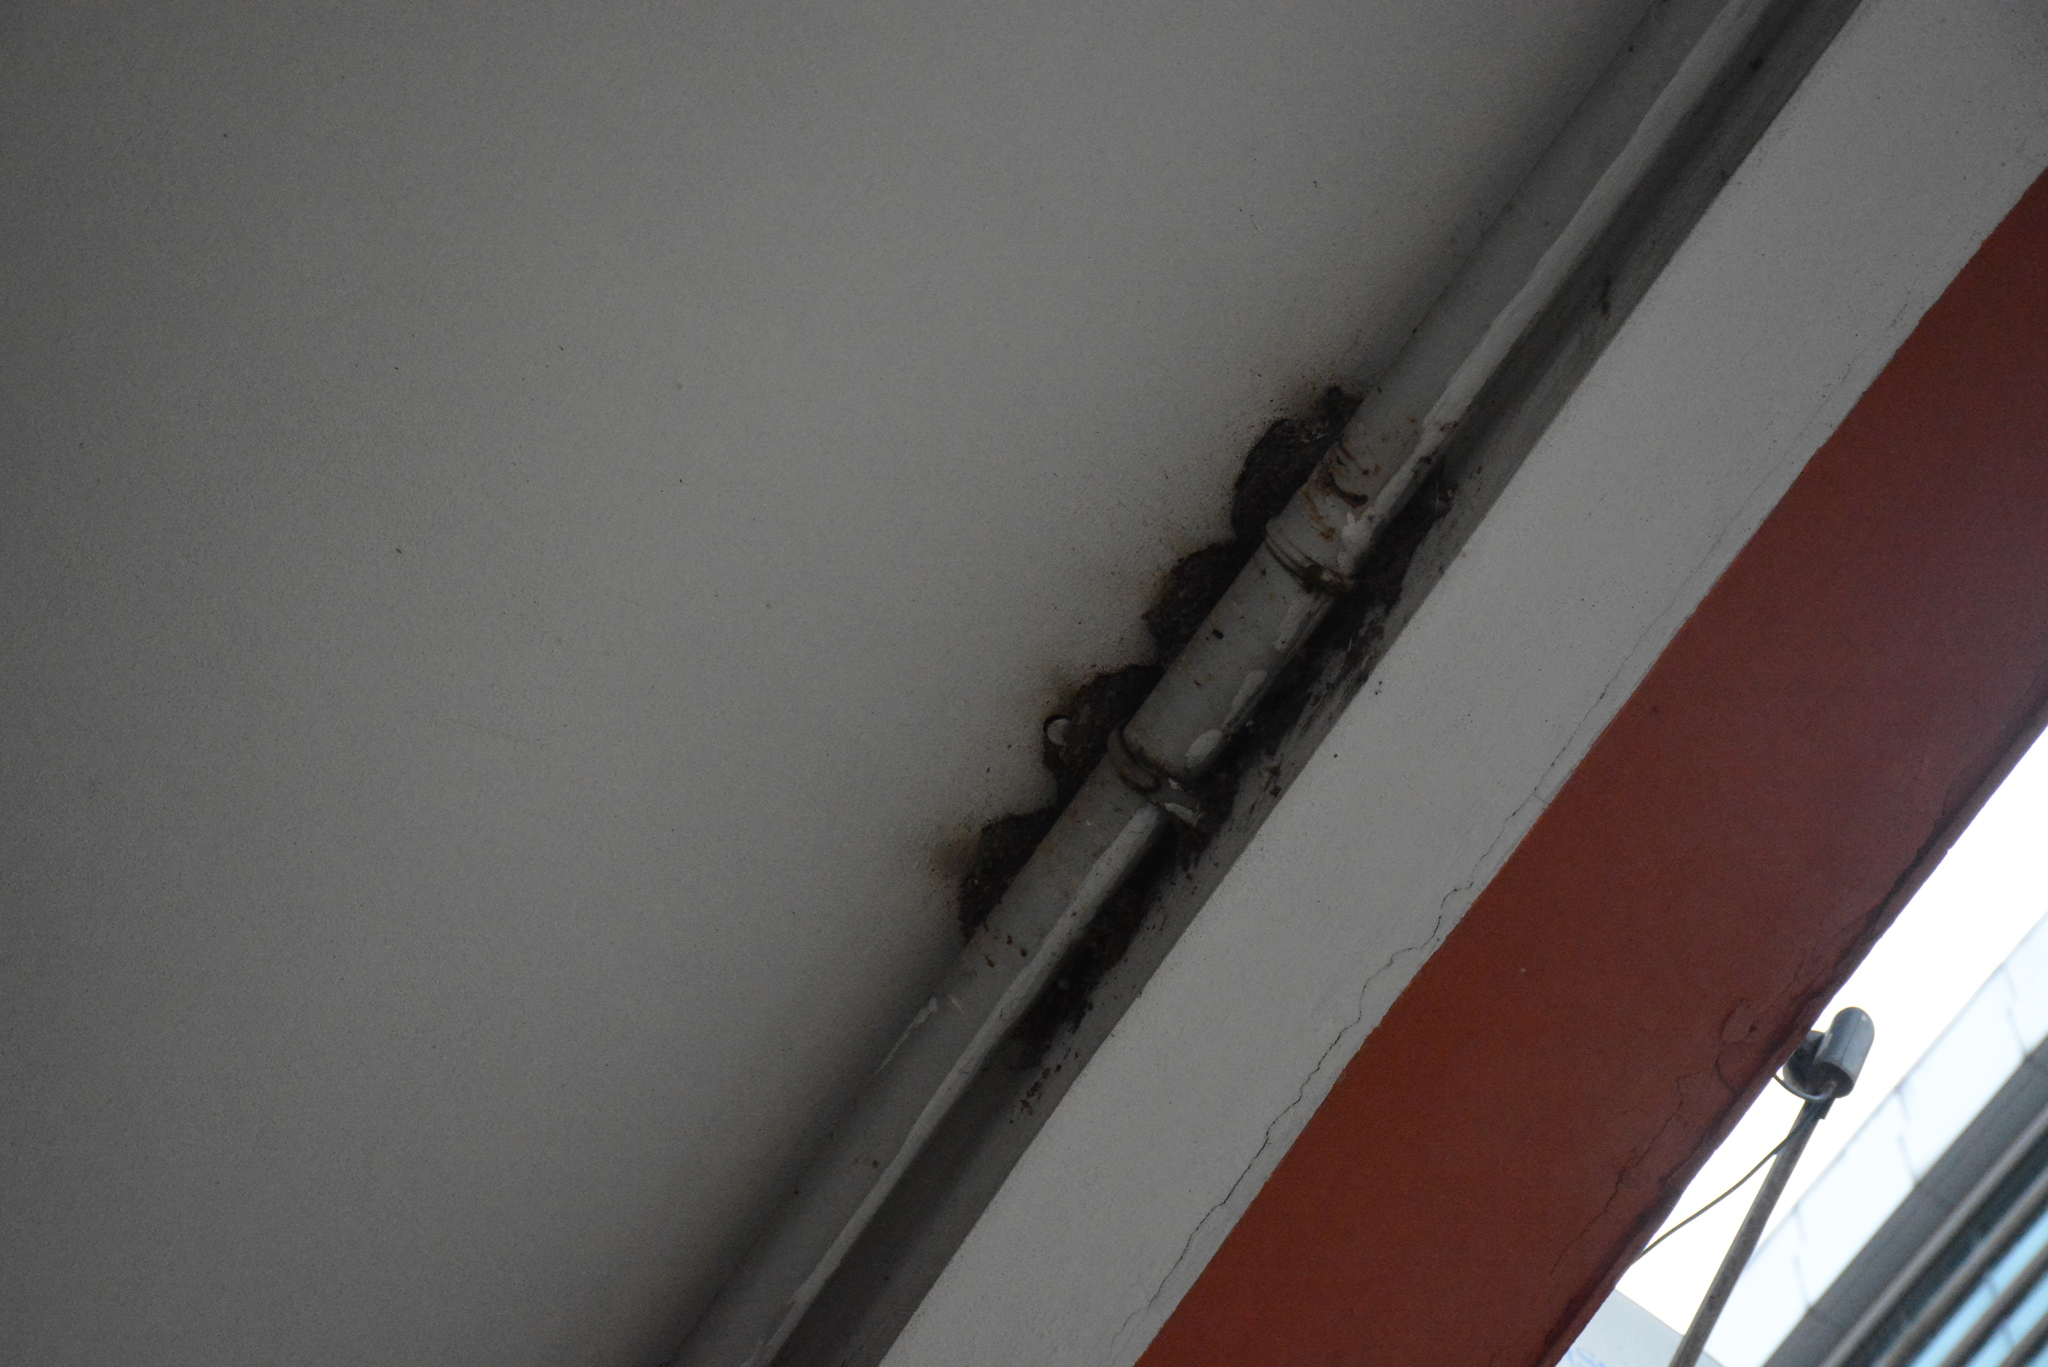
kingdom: Animalia
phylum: Chordata
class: Aves
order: Passeriformes
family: Hirundinidae
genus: Delichon
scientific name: Delichon urbicum
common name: Common house martin
